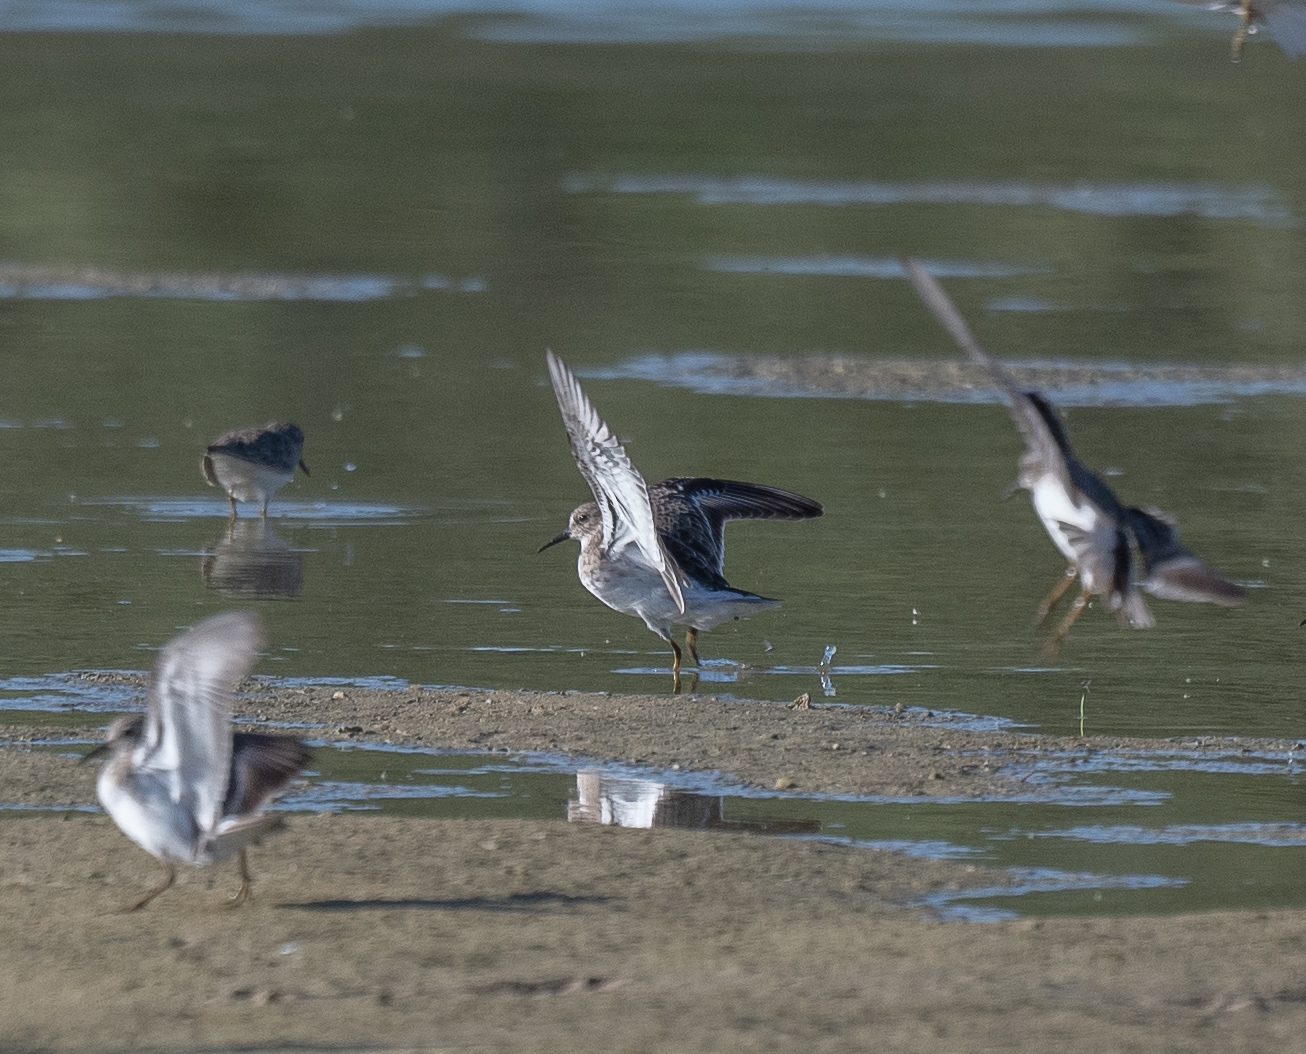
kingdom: Animalia
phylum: Chordata
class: Aves
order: Charadriiformes
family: Scolopacidae
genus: Calidris
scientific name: Calidris minutilla
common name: Least sandpiper
